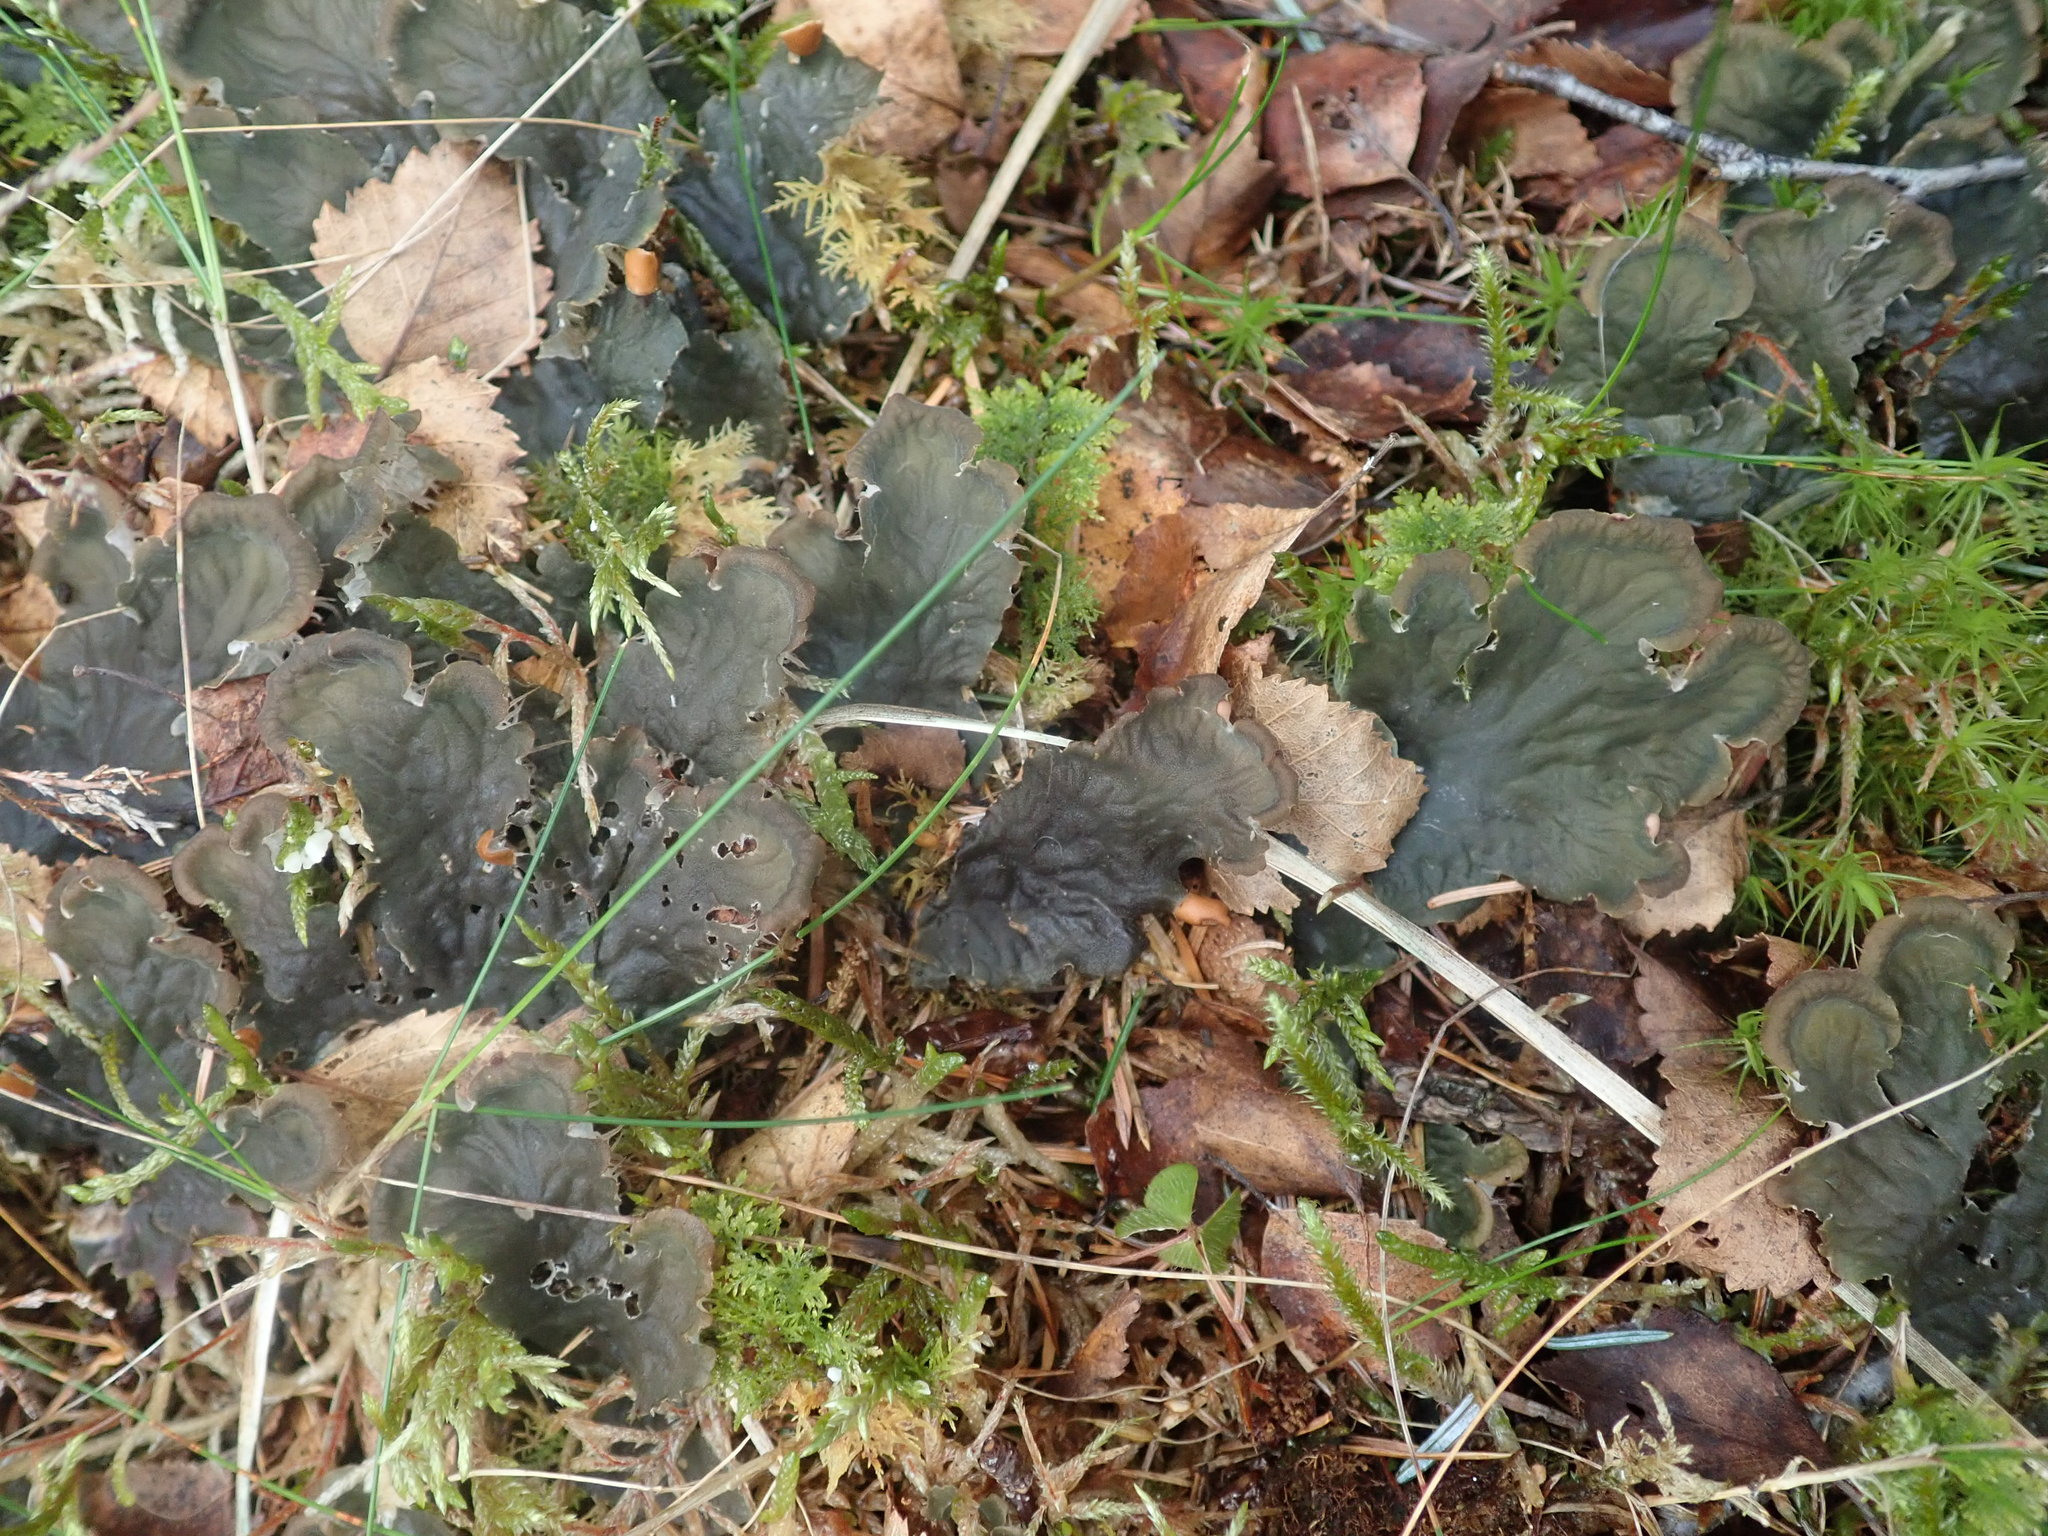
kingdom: Fungi
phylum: Ascomycota
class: Lecanoromycetes
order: Peltigerales
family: Peltigeraceae
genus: Peltigera
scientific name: Peltigera membranacea
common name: Membranous pelt lichen
